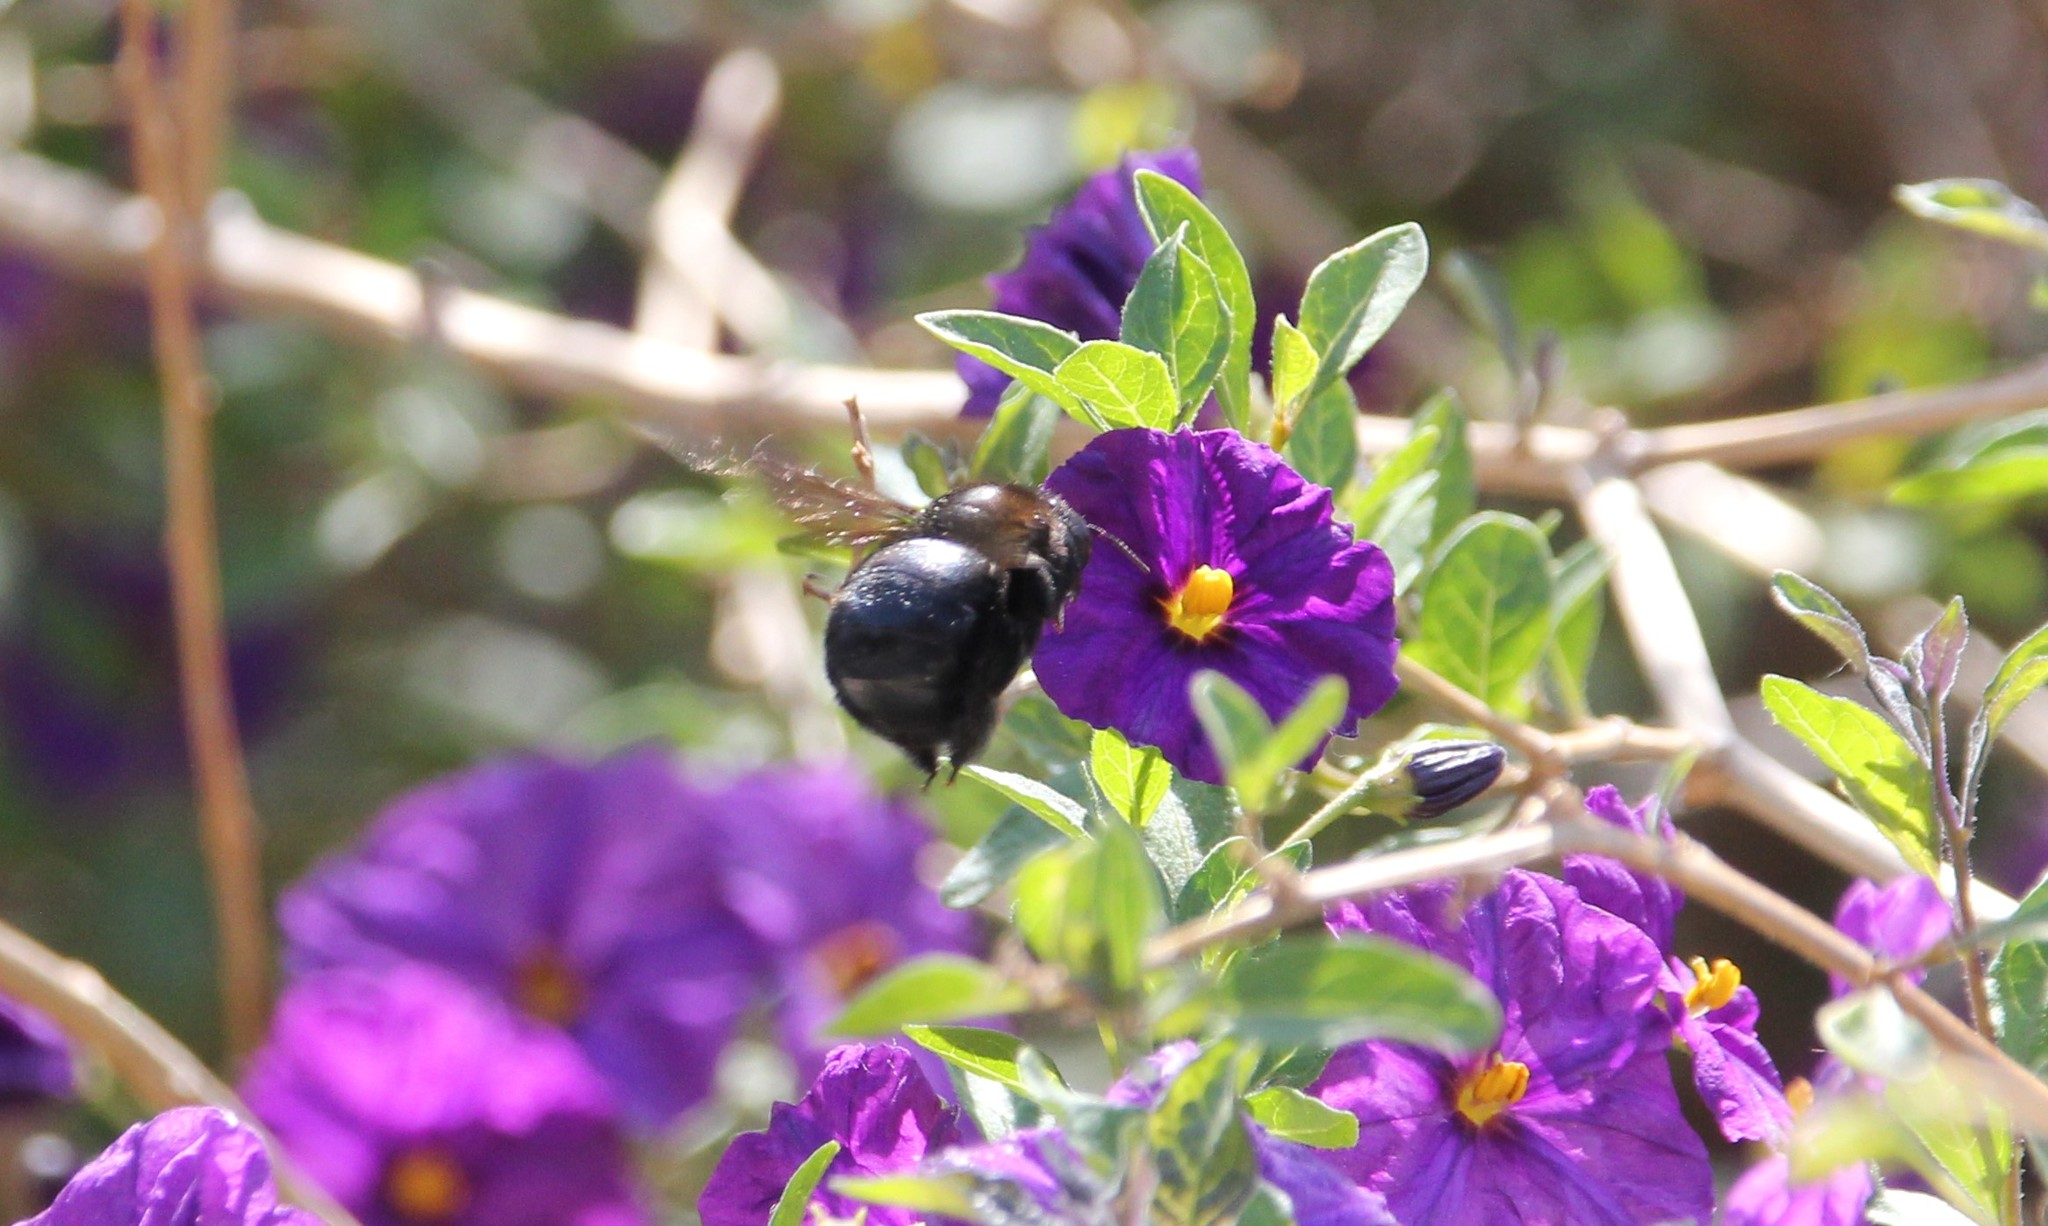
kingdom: Animalia
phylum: Arthropoda
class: Insecta
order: Hymenoptera
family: Apidae
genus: Xylocopa
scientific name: Xylocopa sonorina
